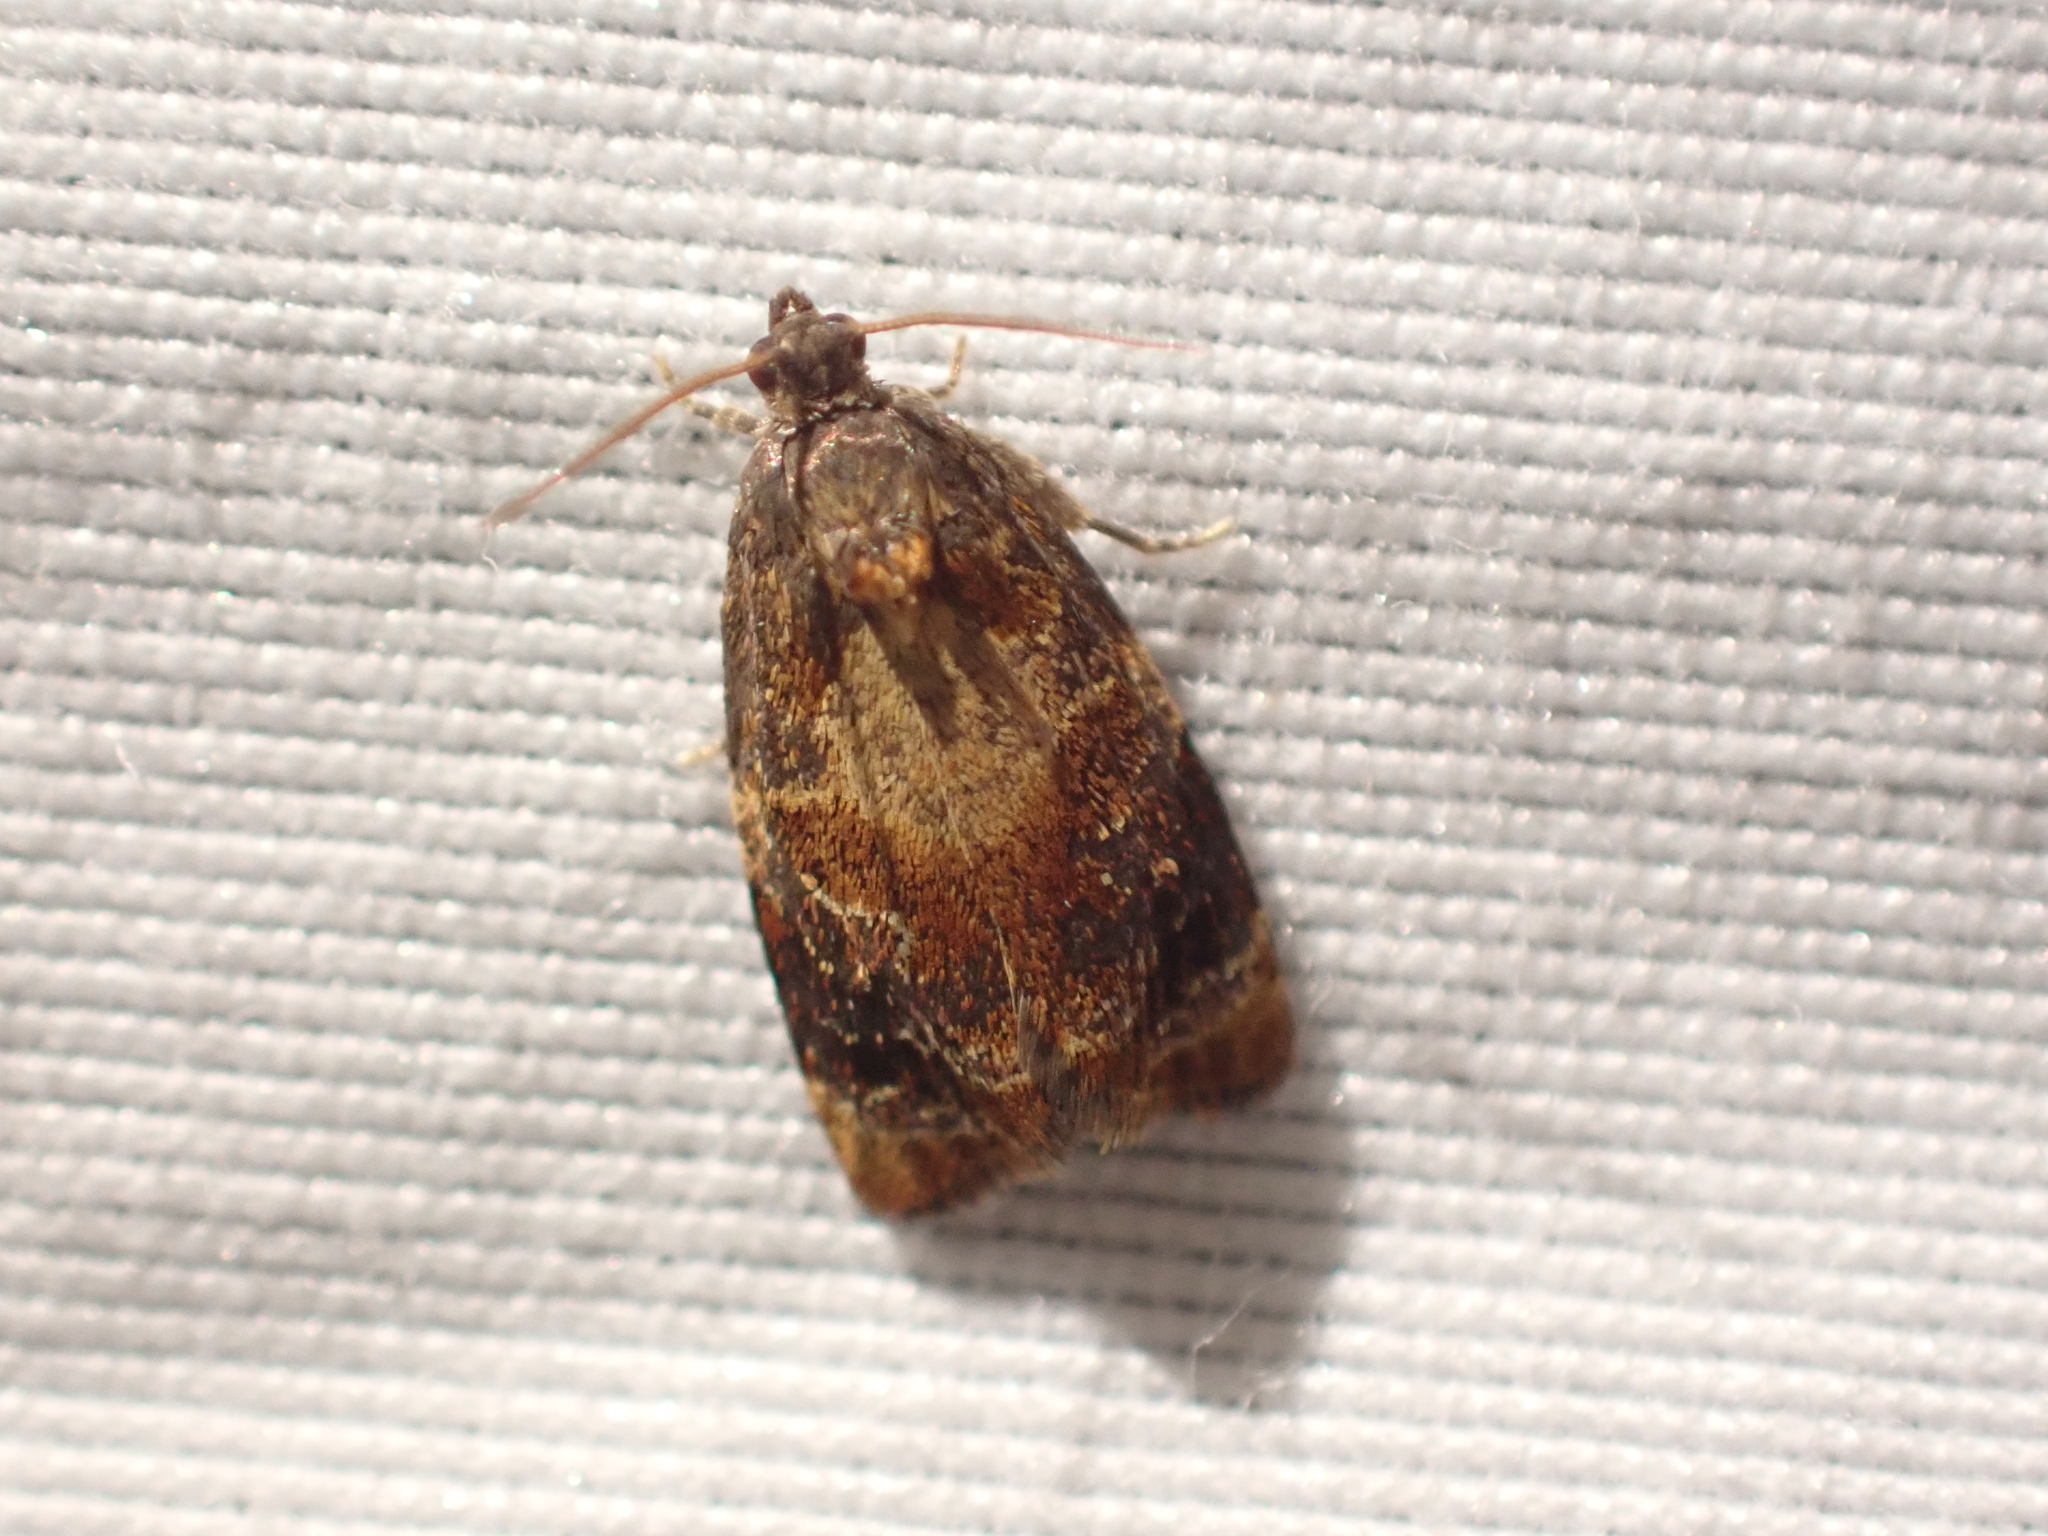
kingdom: Animalia
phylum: Arthropoda
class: Insecta
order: Lepidoptera
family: Tortricidae
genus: Ditula
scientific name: Ditula angustiorana
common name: Red-barred tortrix
